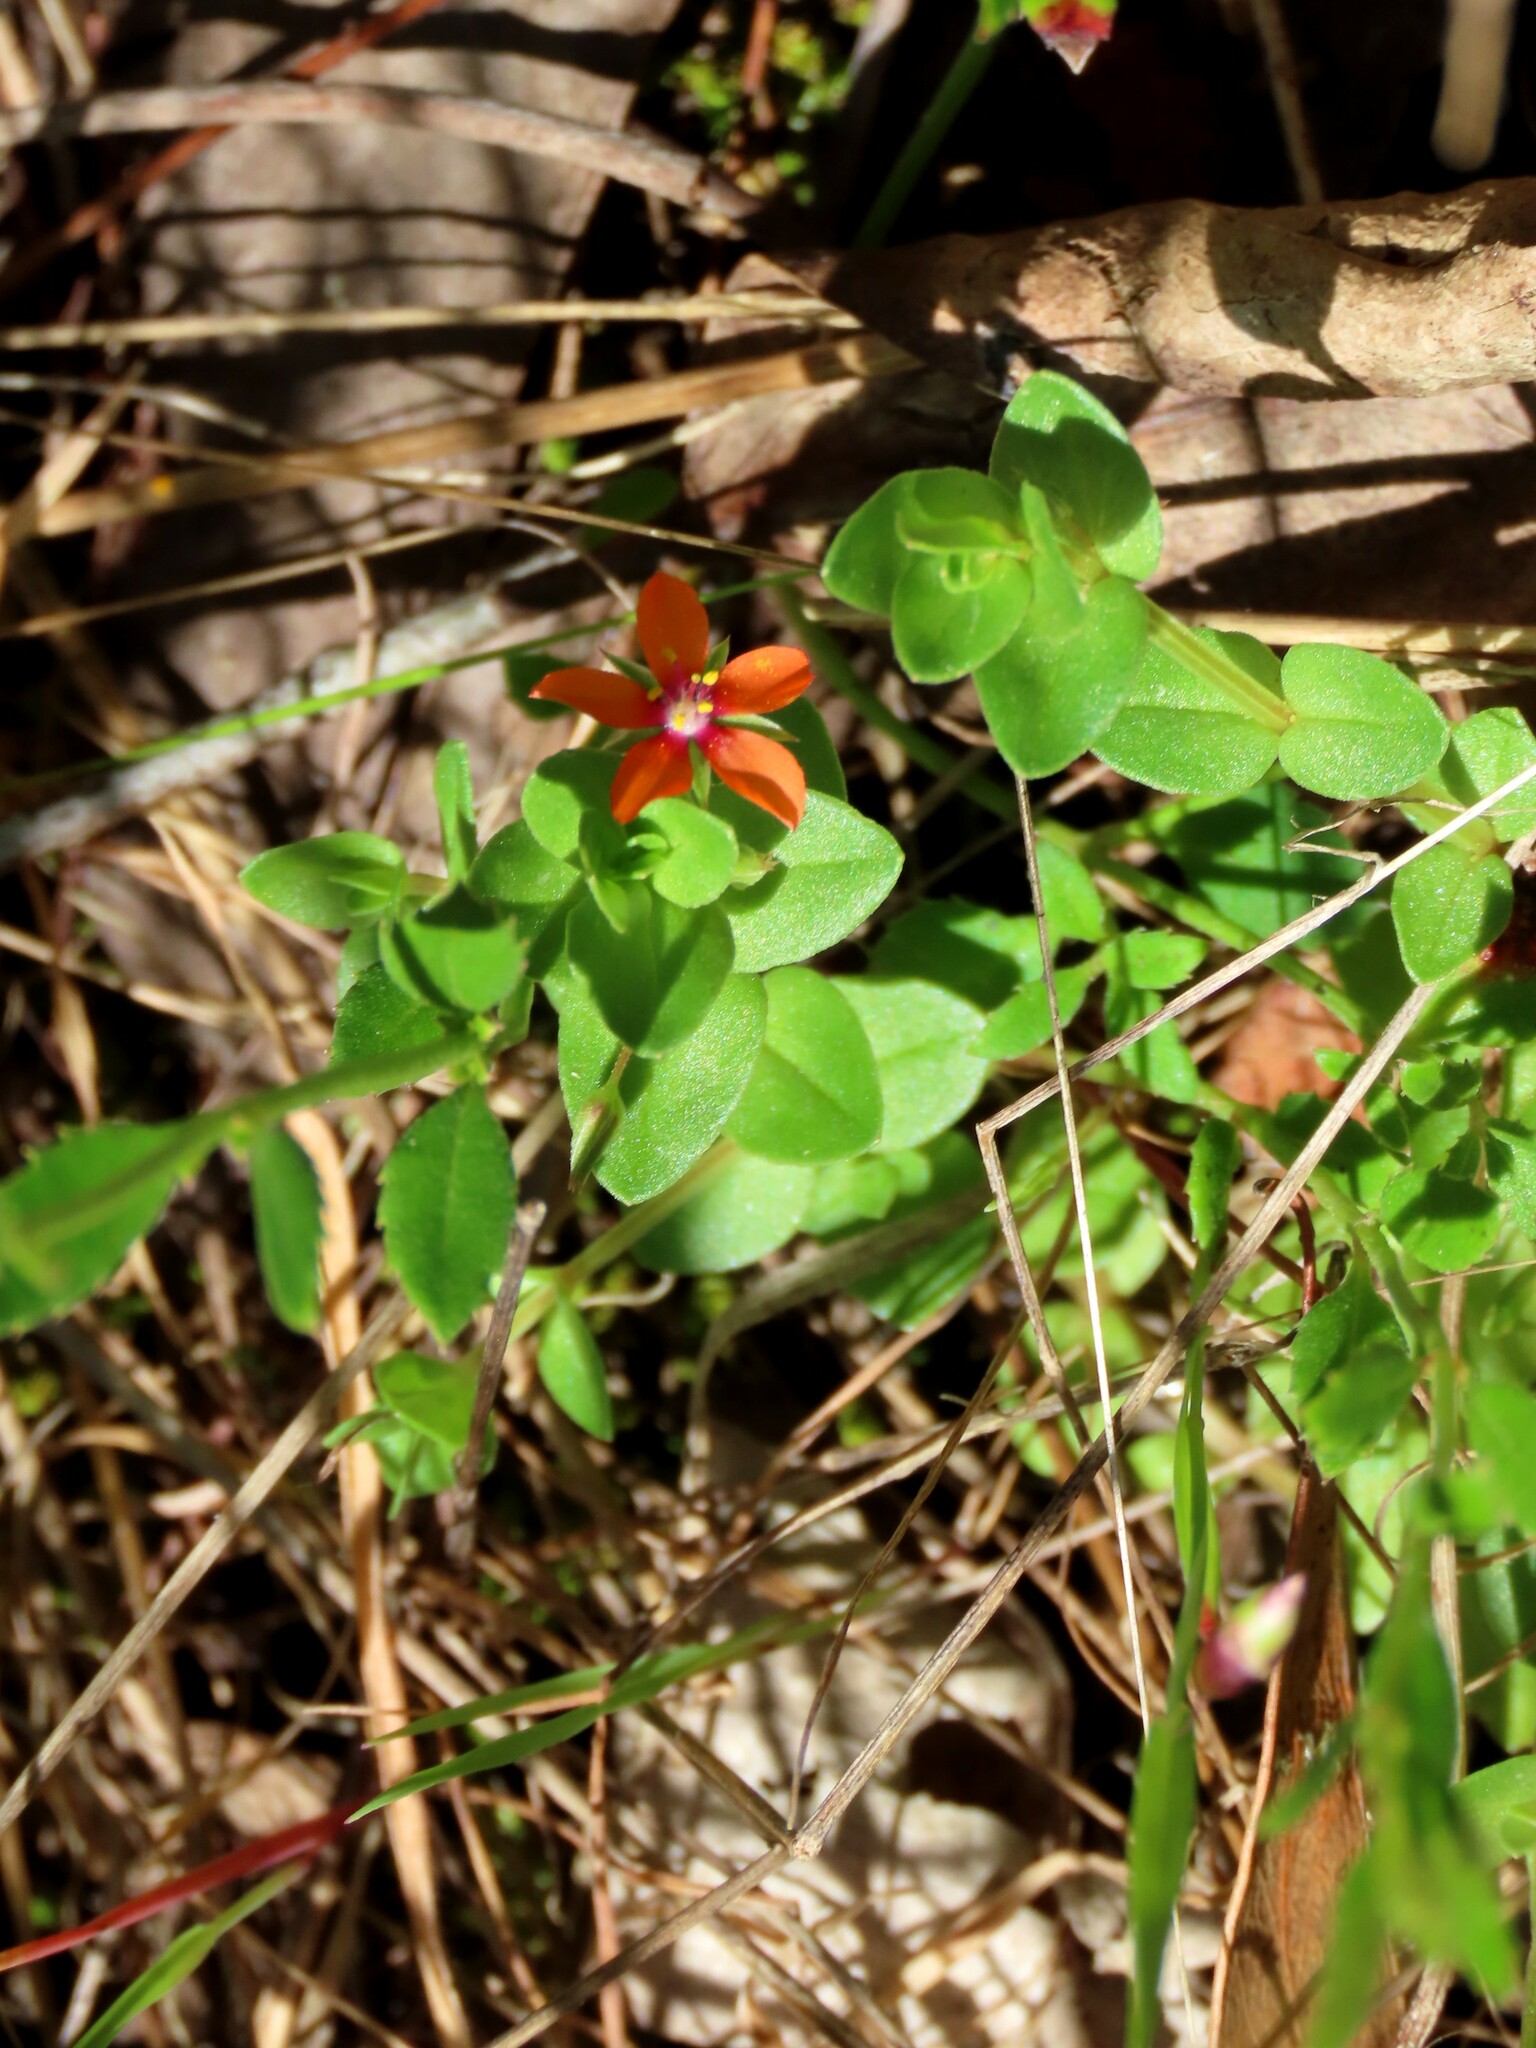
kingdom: Plantae
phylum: Tracheophyta
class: Magnoliopsida
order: Ericales
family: Primulaceae
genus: Lysimachia
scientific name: Lysimachia arvensis
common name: Scarlet pimpernel
